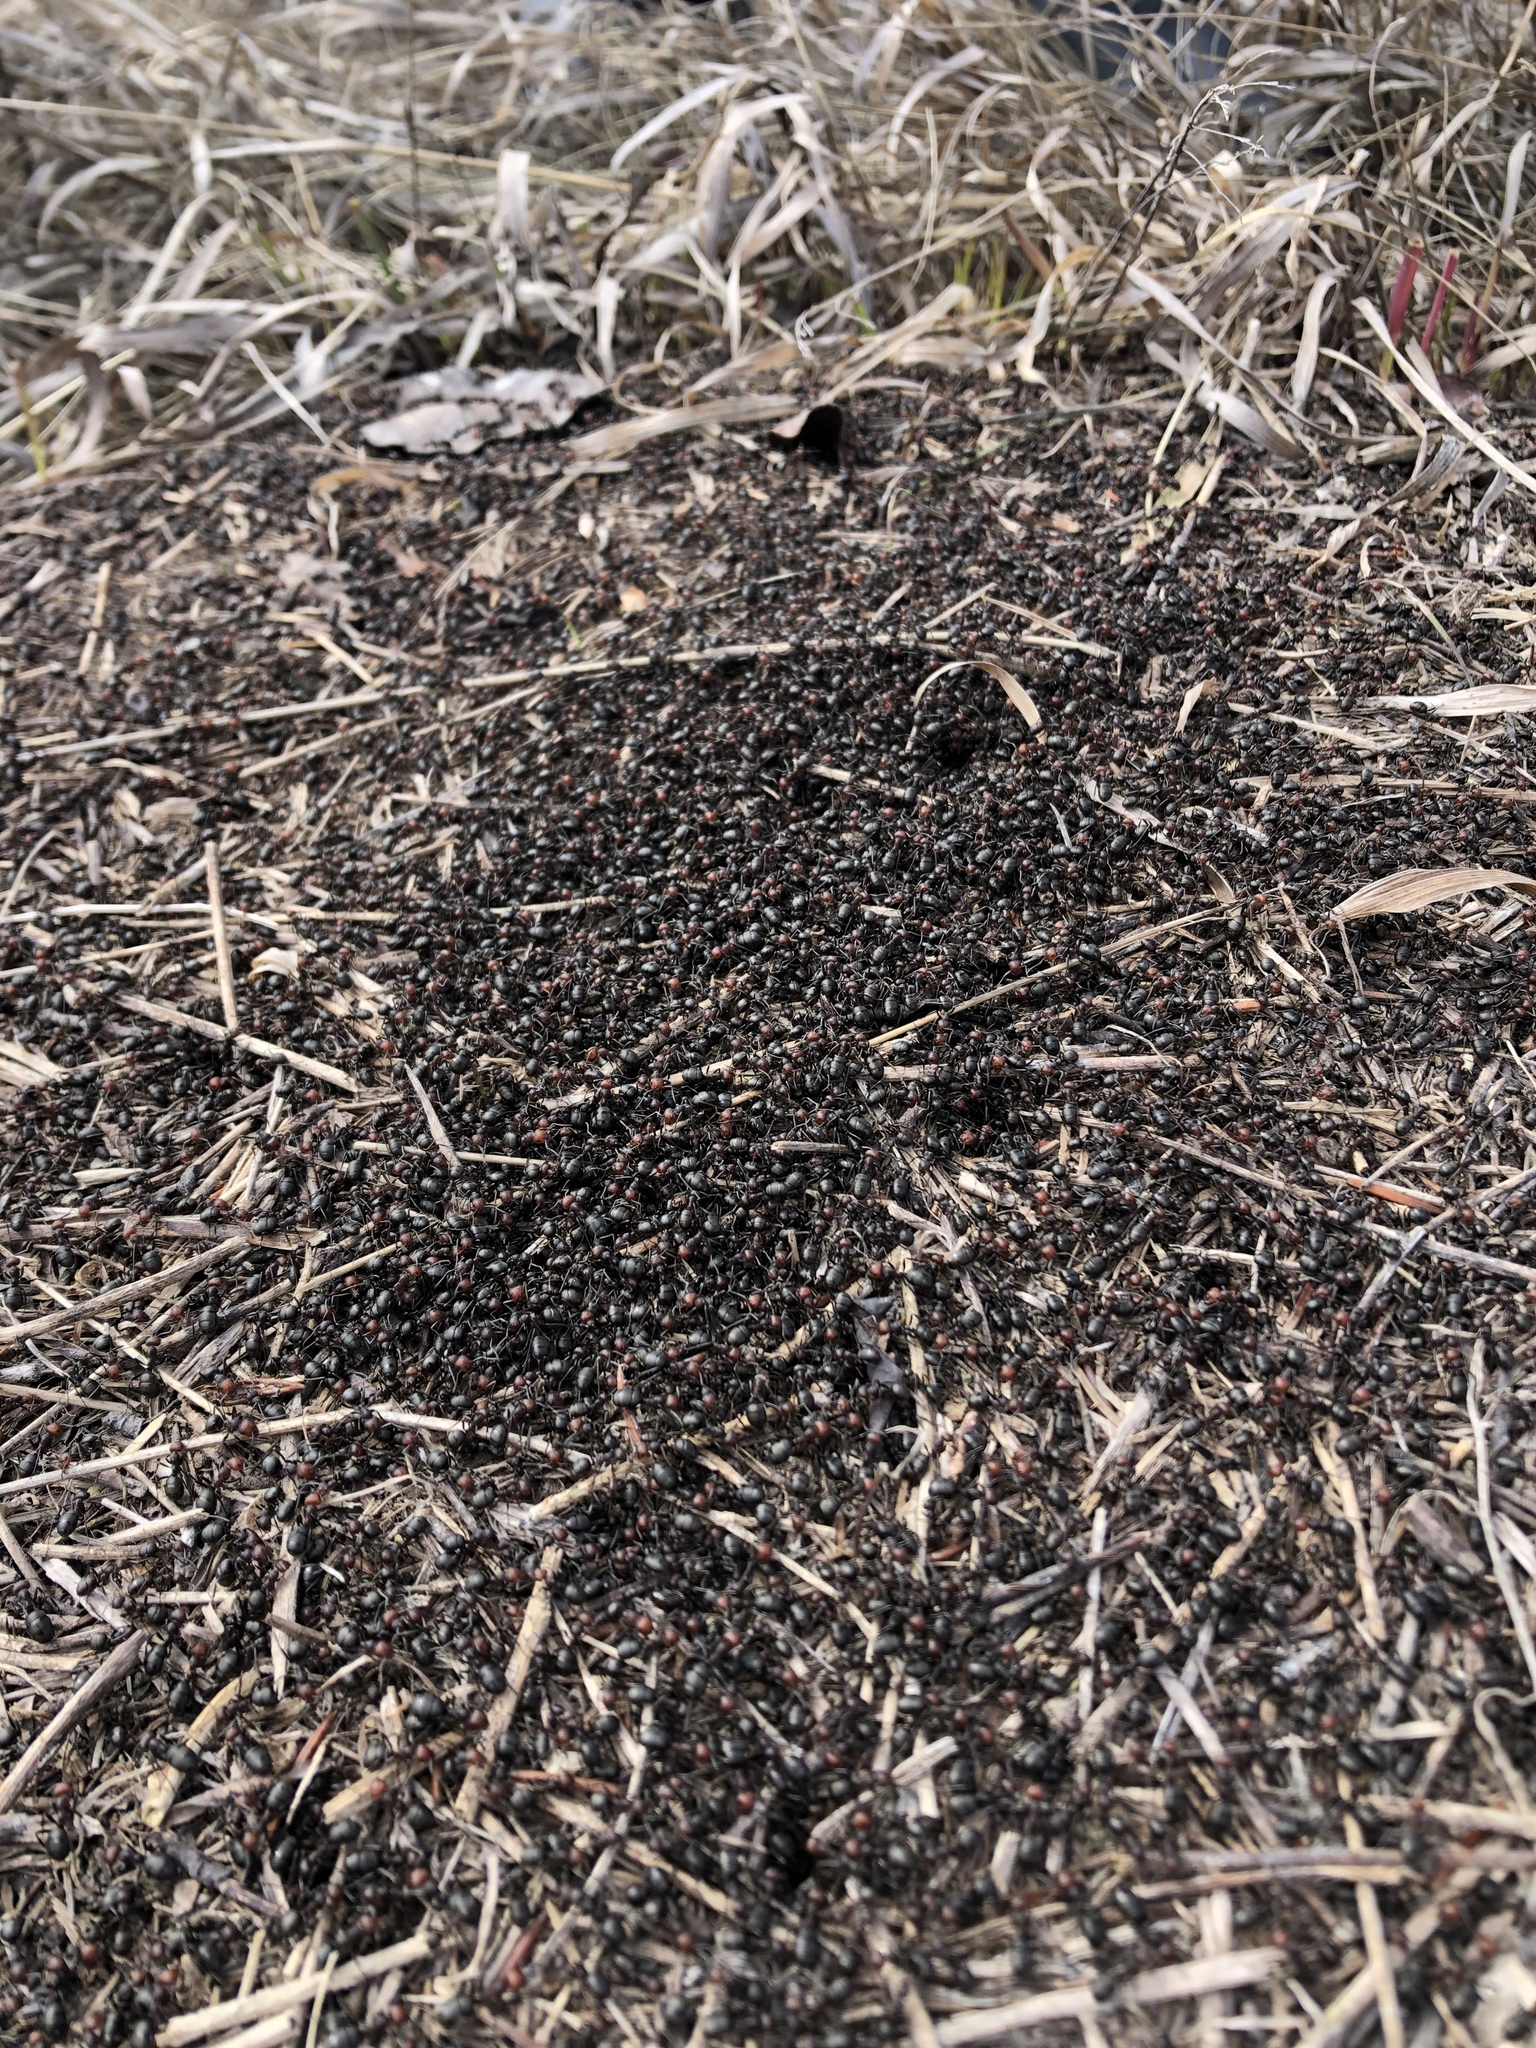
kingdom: Animalia
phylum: Arthropoda
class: Insecta
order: Hymenoptera
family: Formicidae
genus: Formica
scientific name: Formica obscuripes
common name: Western thatching ant
